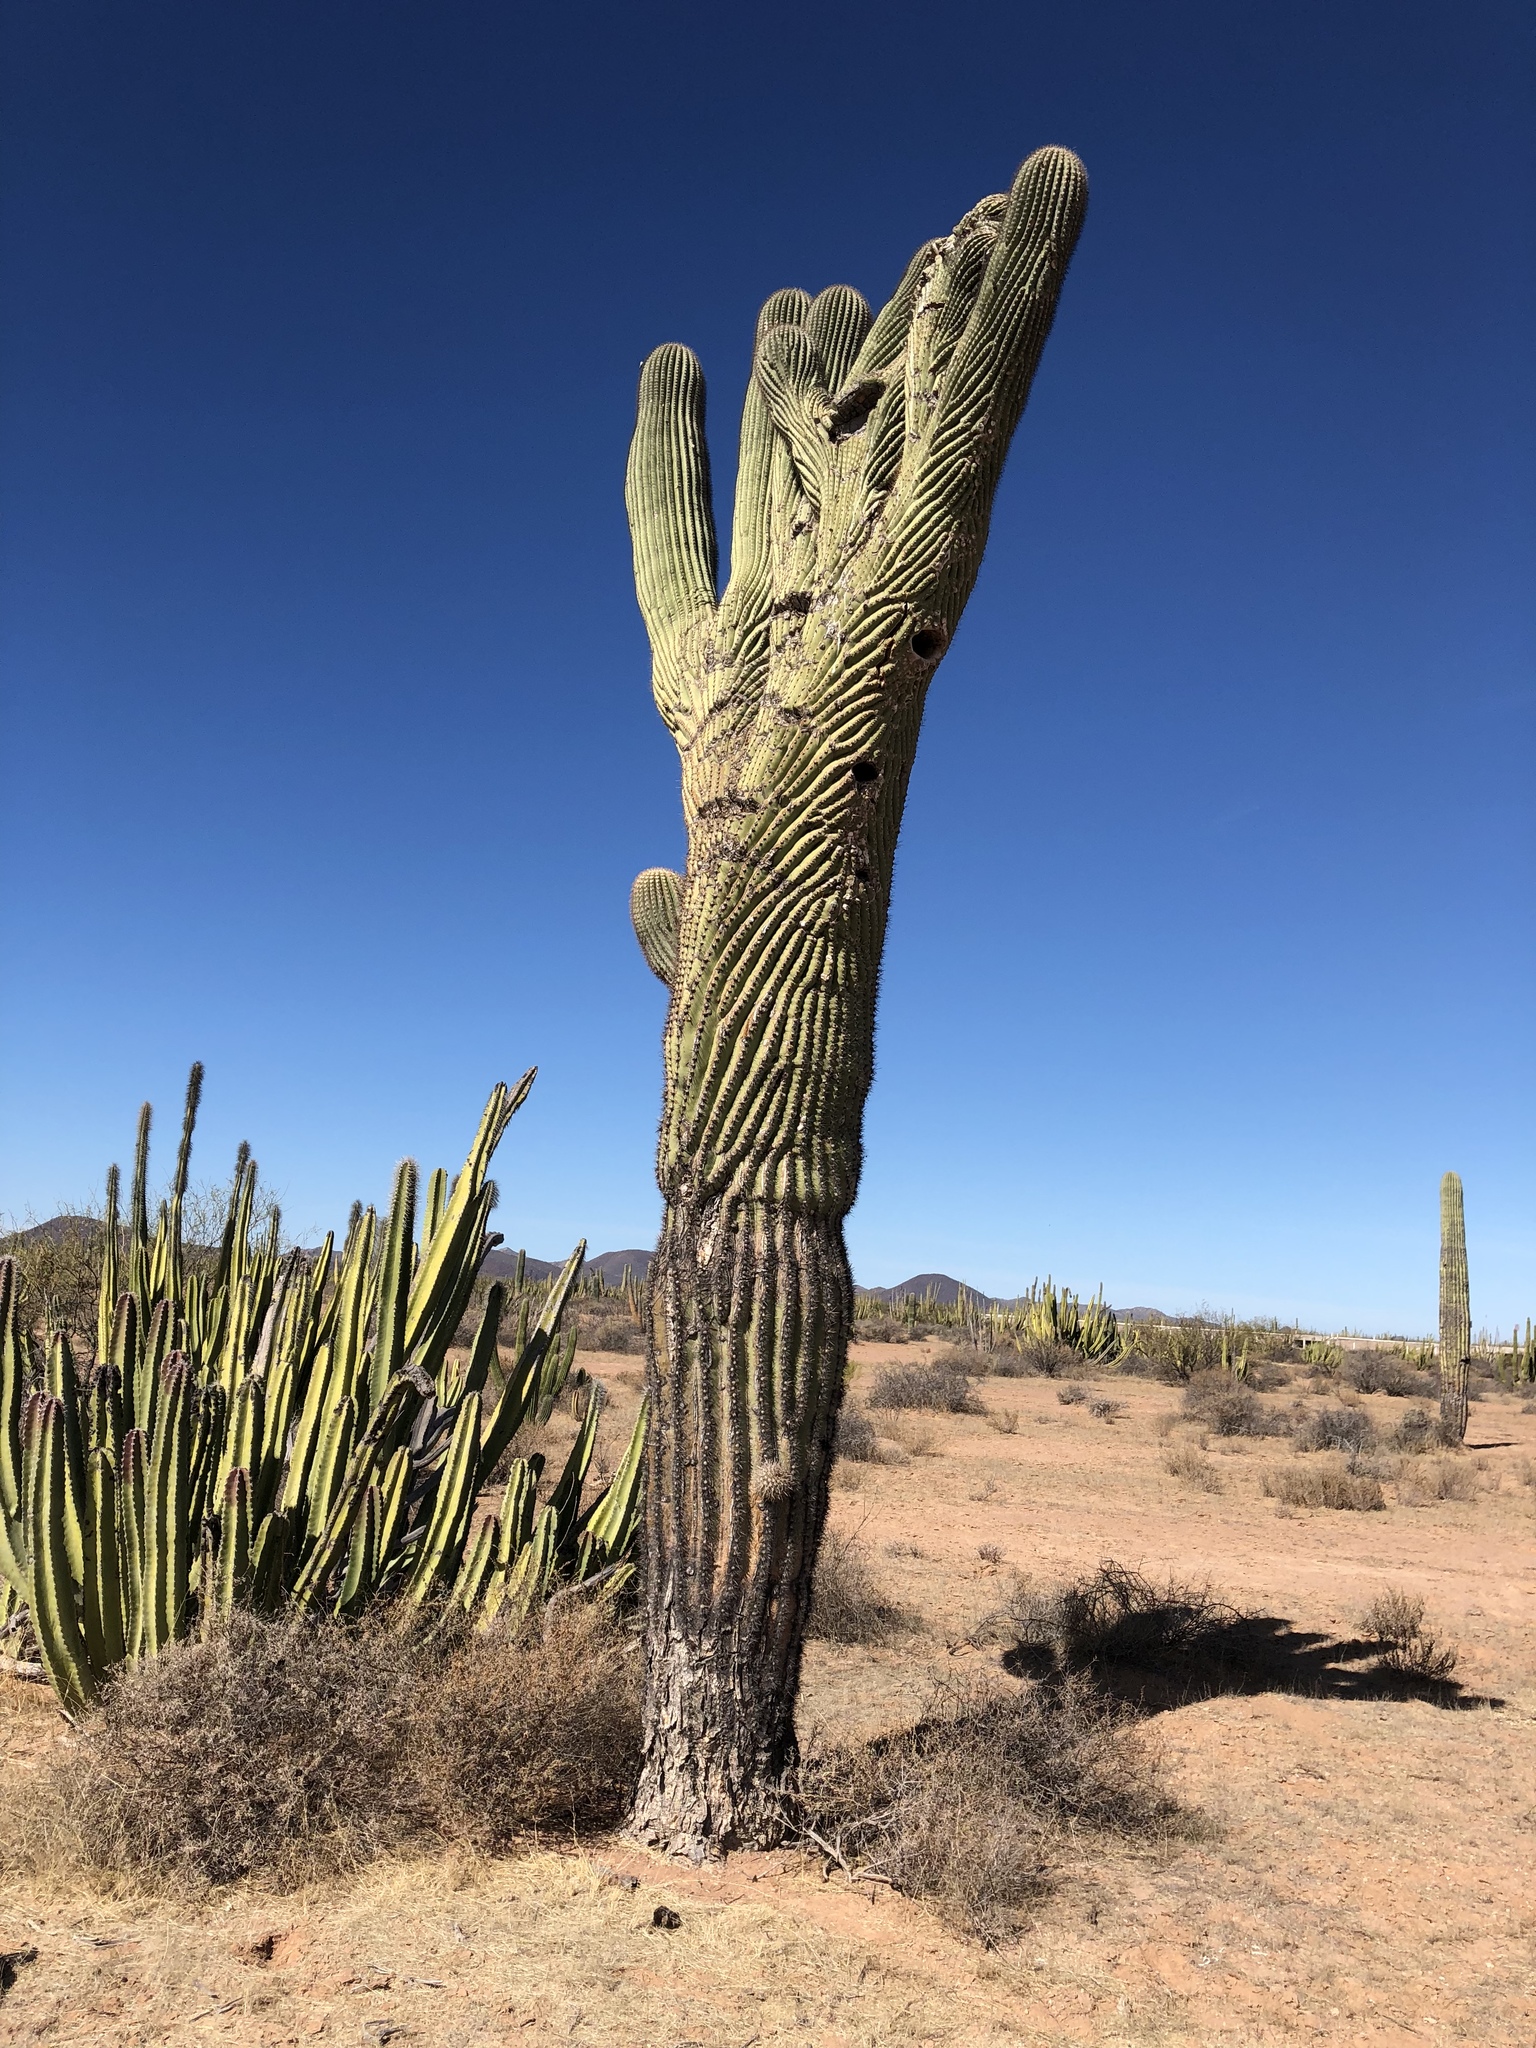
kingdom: Plantae
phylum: Tracheophyta
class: Magnoliopsida
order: Caryophyllales
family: Cactaceae
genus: Carnegiea
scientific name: Carnegiea gigantea
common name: Saguaro
